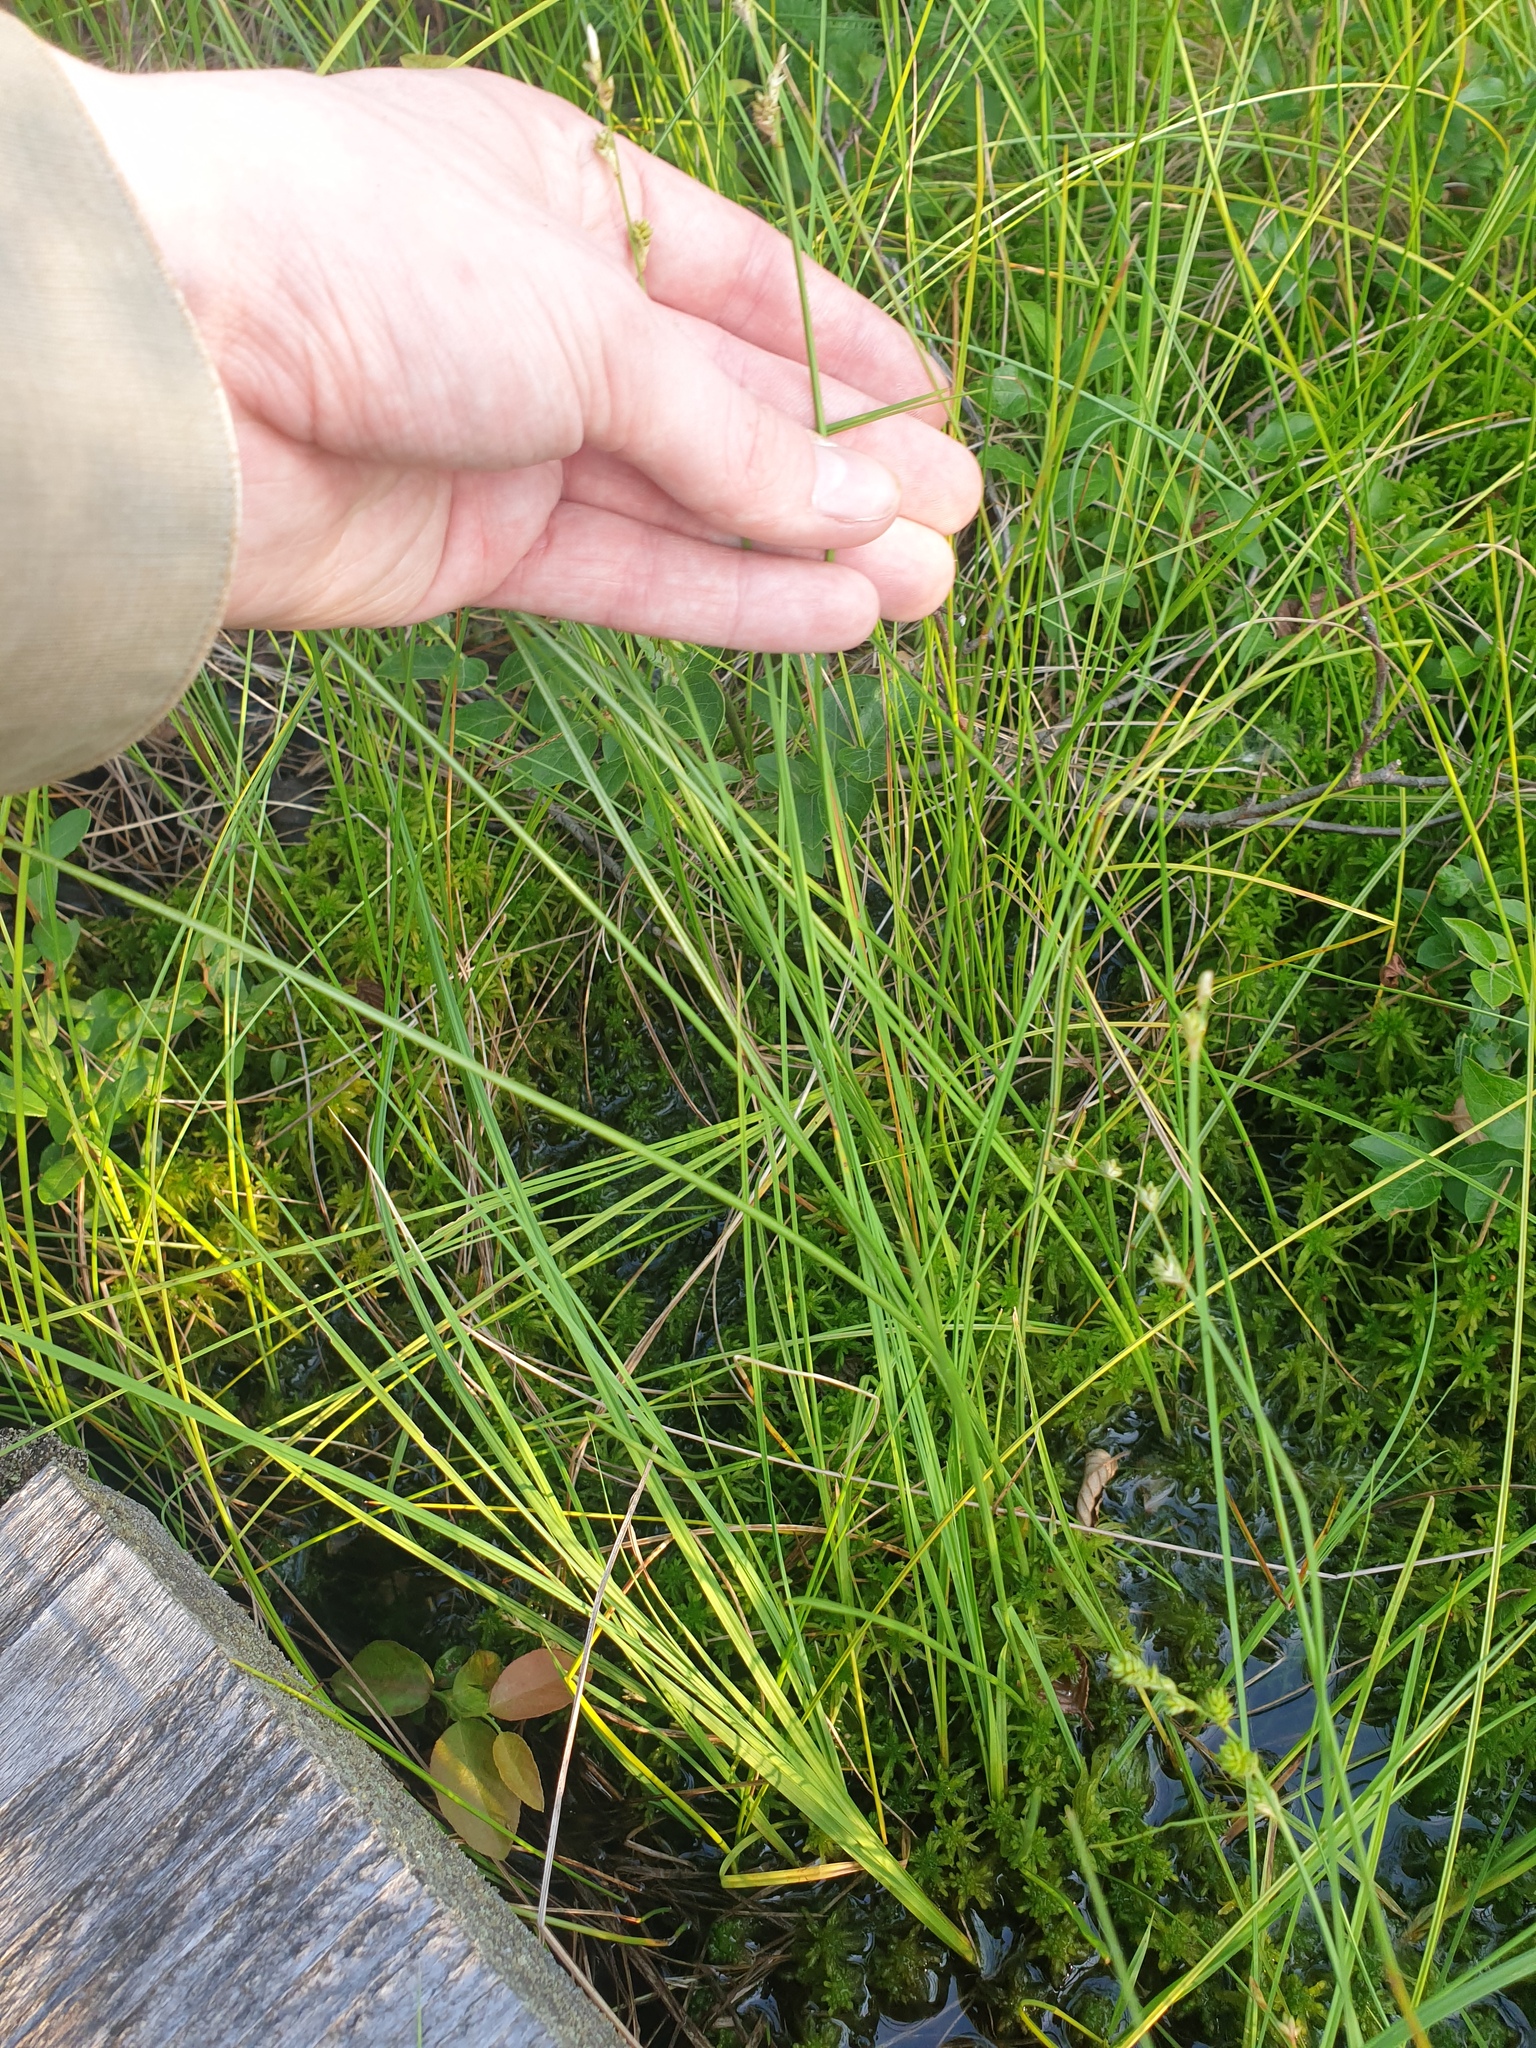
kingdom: Plantae
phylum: Tracheophyta
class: Liliopsida
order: Poales
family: Cyperaceae
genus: Carex
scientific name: Carex canescens
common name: White sedge
